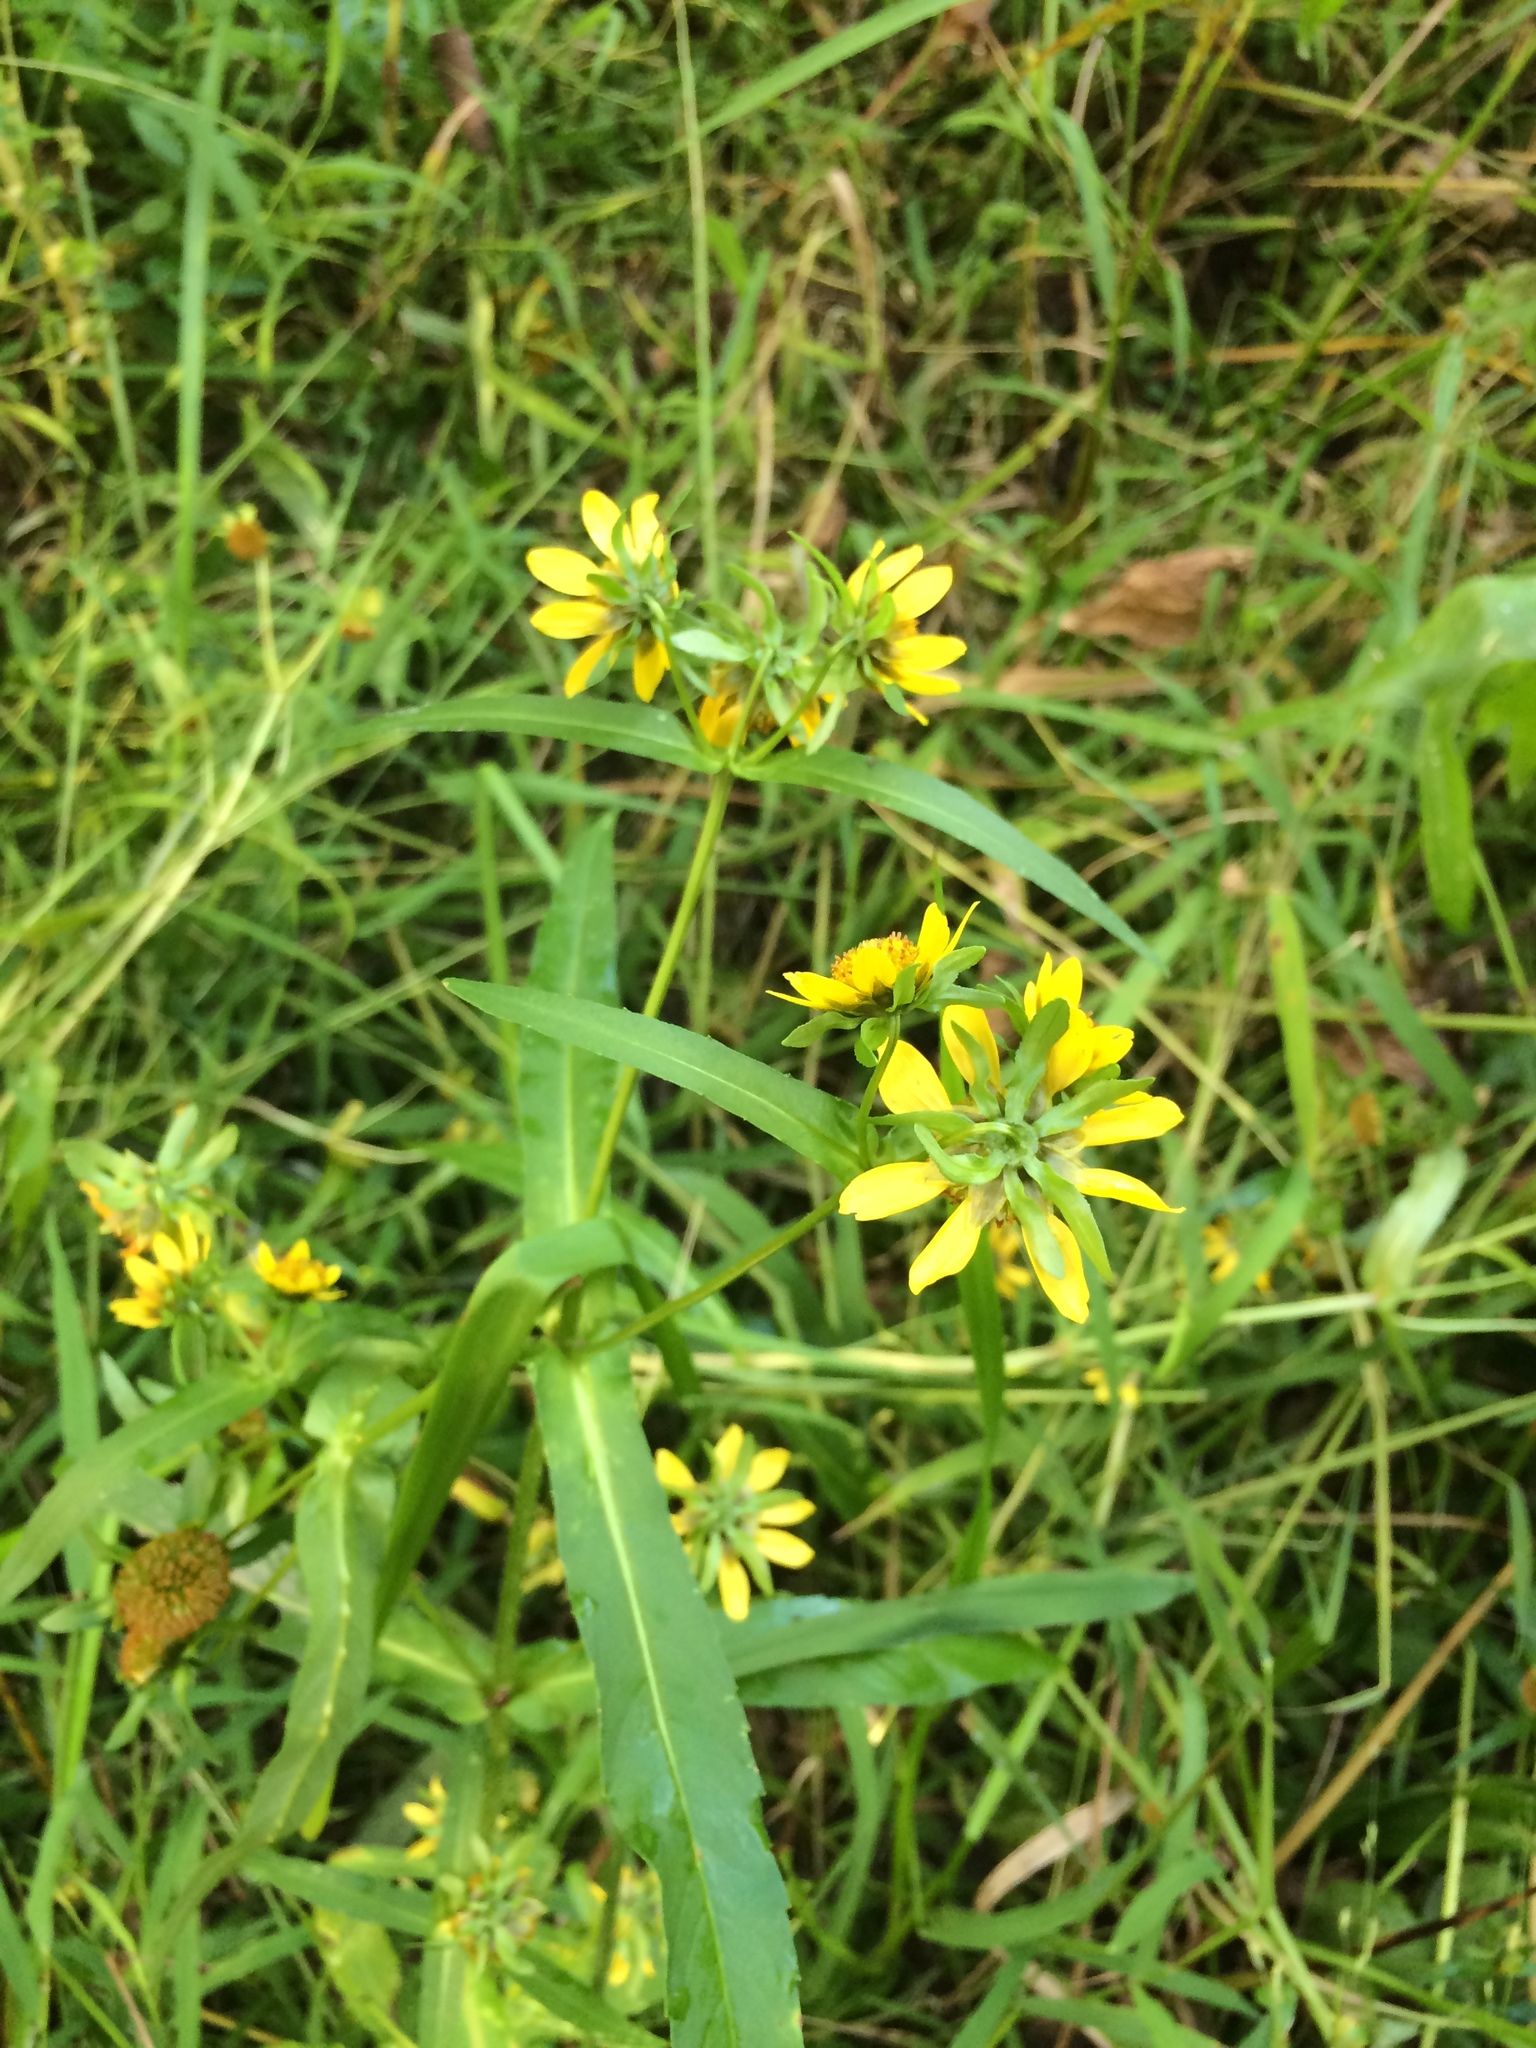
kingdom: Plantae
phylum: Tracheophyta
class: Magnoliopsida
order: Asterales
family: Asteraceae
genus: Bidens
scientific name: Bidens cernua
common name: Nodding bur-marigold
